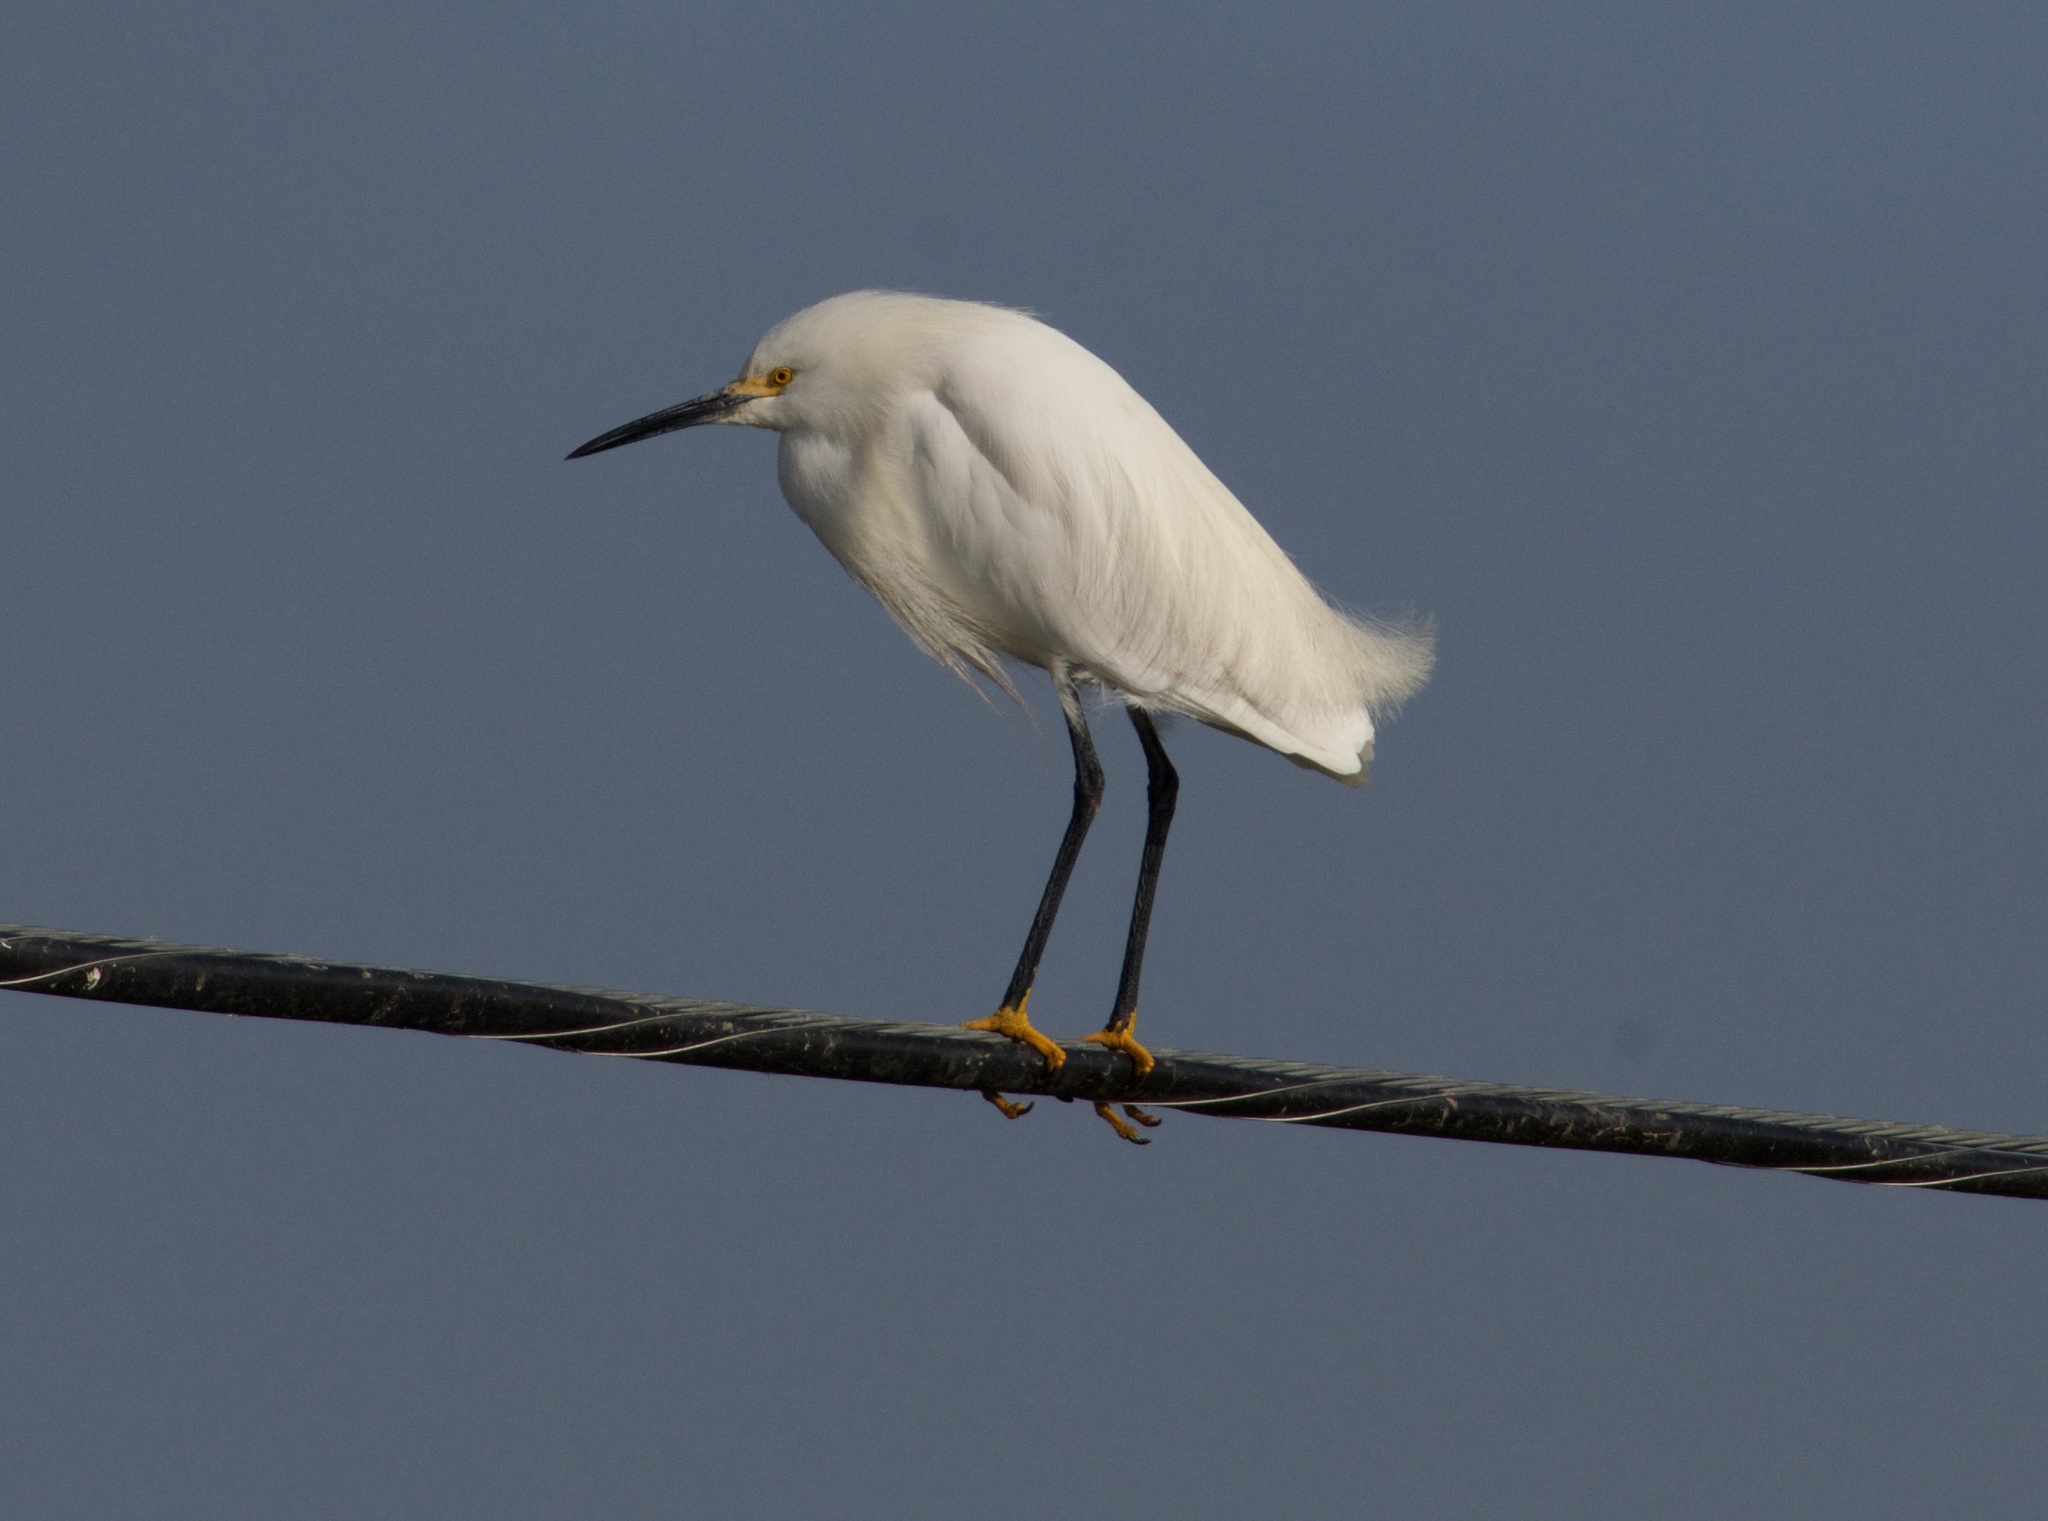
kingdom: Animalia
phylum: Chordata
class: Aves
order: Pelecaniformes
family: Ardeidae
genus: Egretta
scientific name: Egretta thula
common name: Snowy egret
